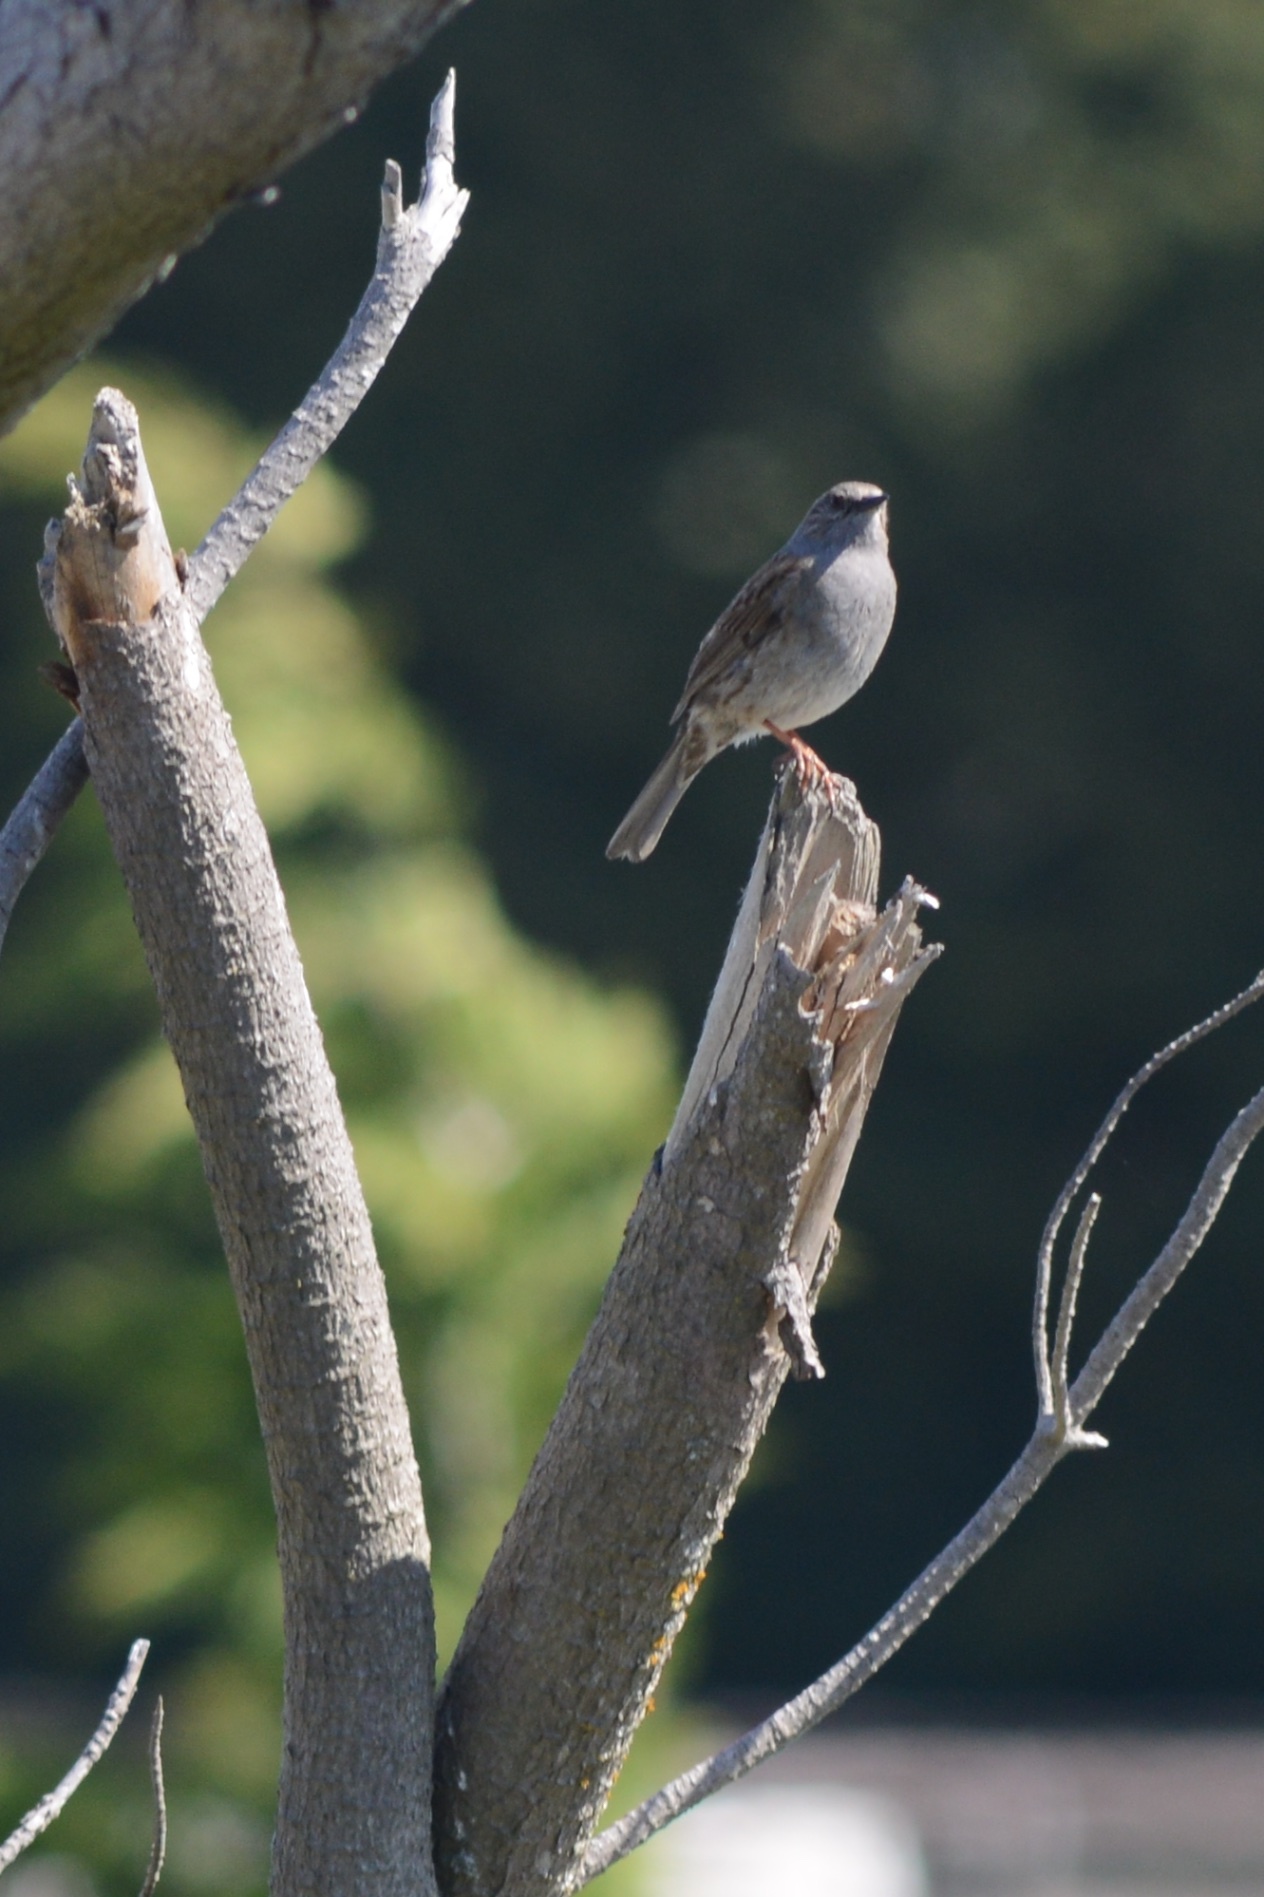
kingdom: Animalia
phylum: Chordata
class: Aves
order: Passeriformes
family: Prunellidae
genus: Prunella
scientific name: Prunella modularis
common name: Dunnock
